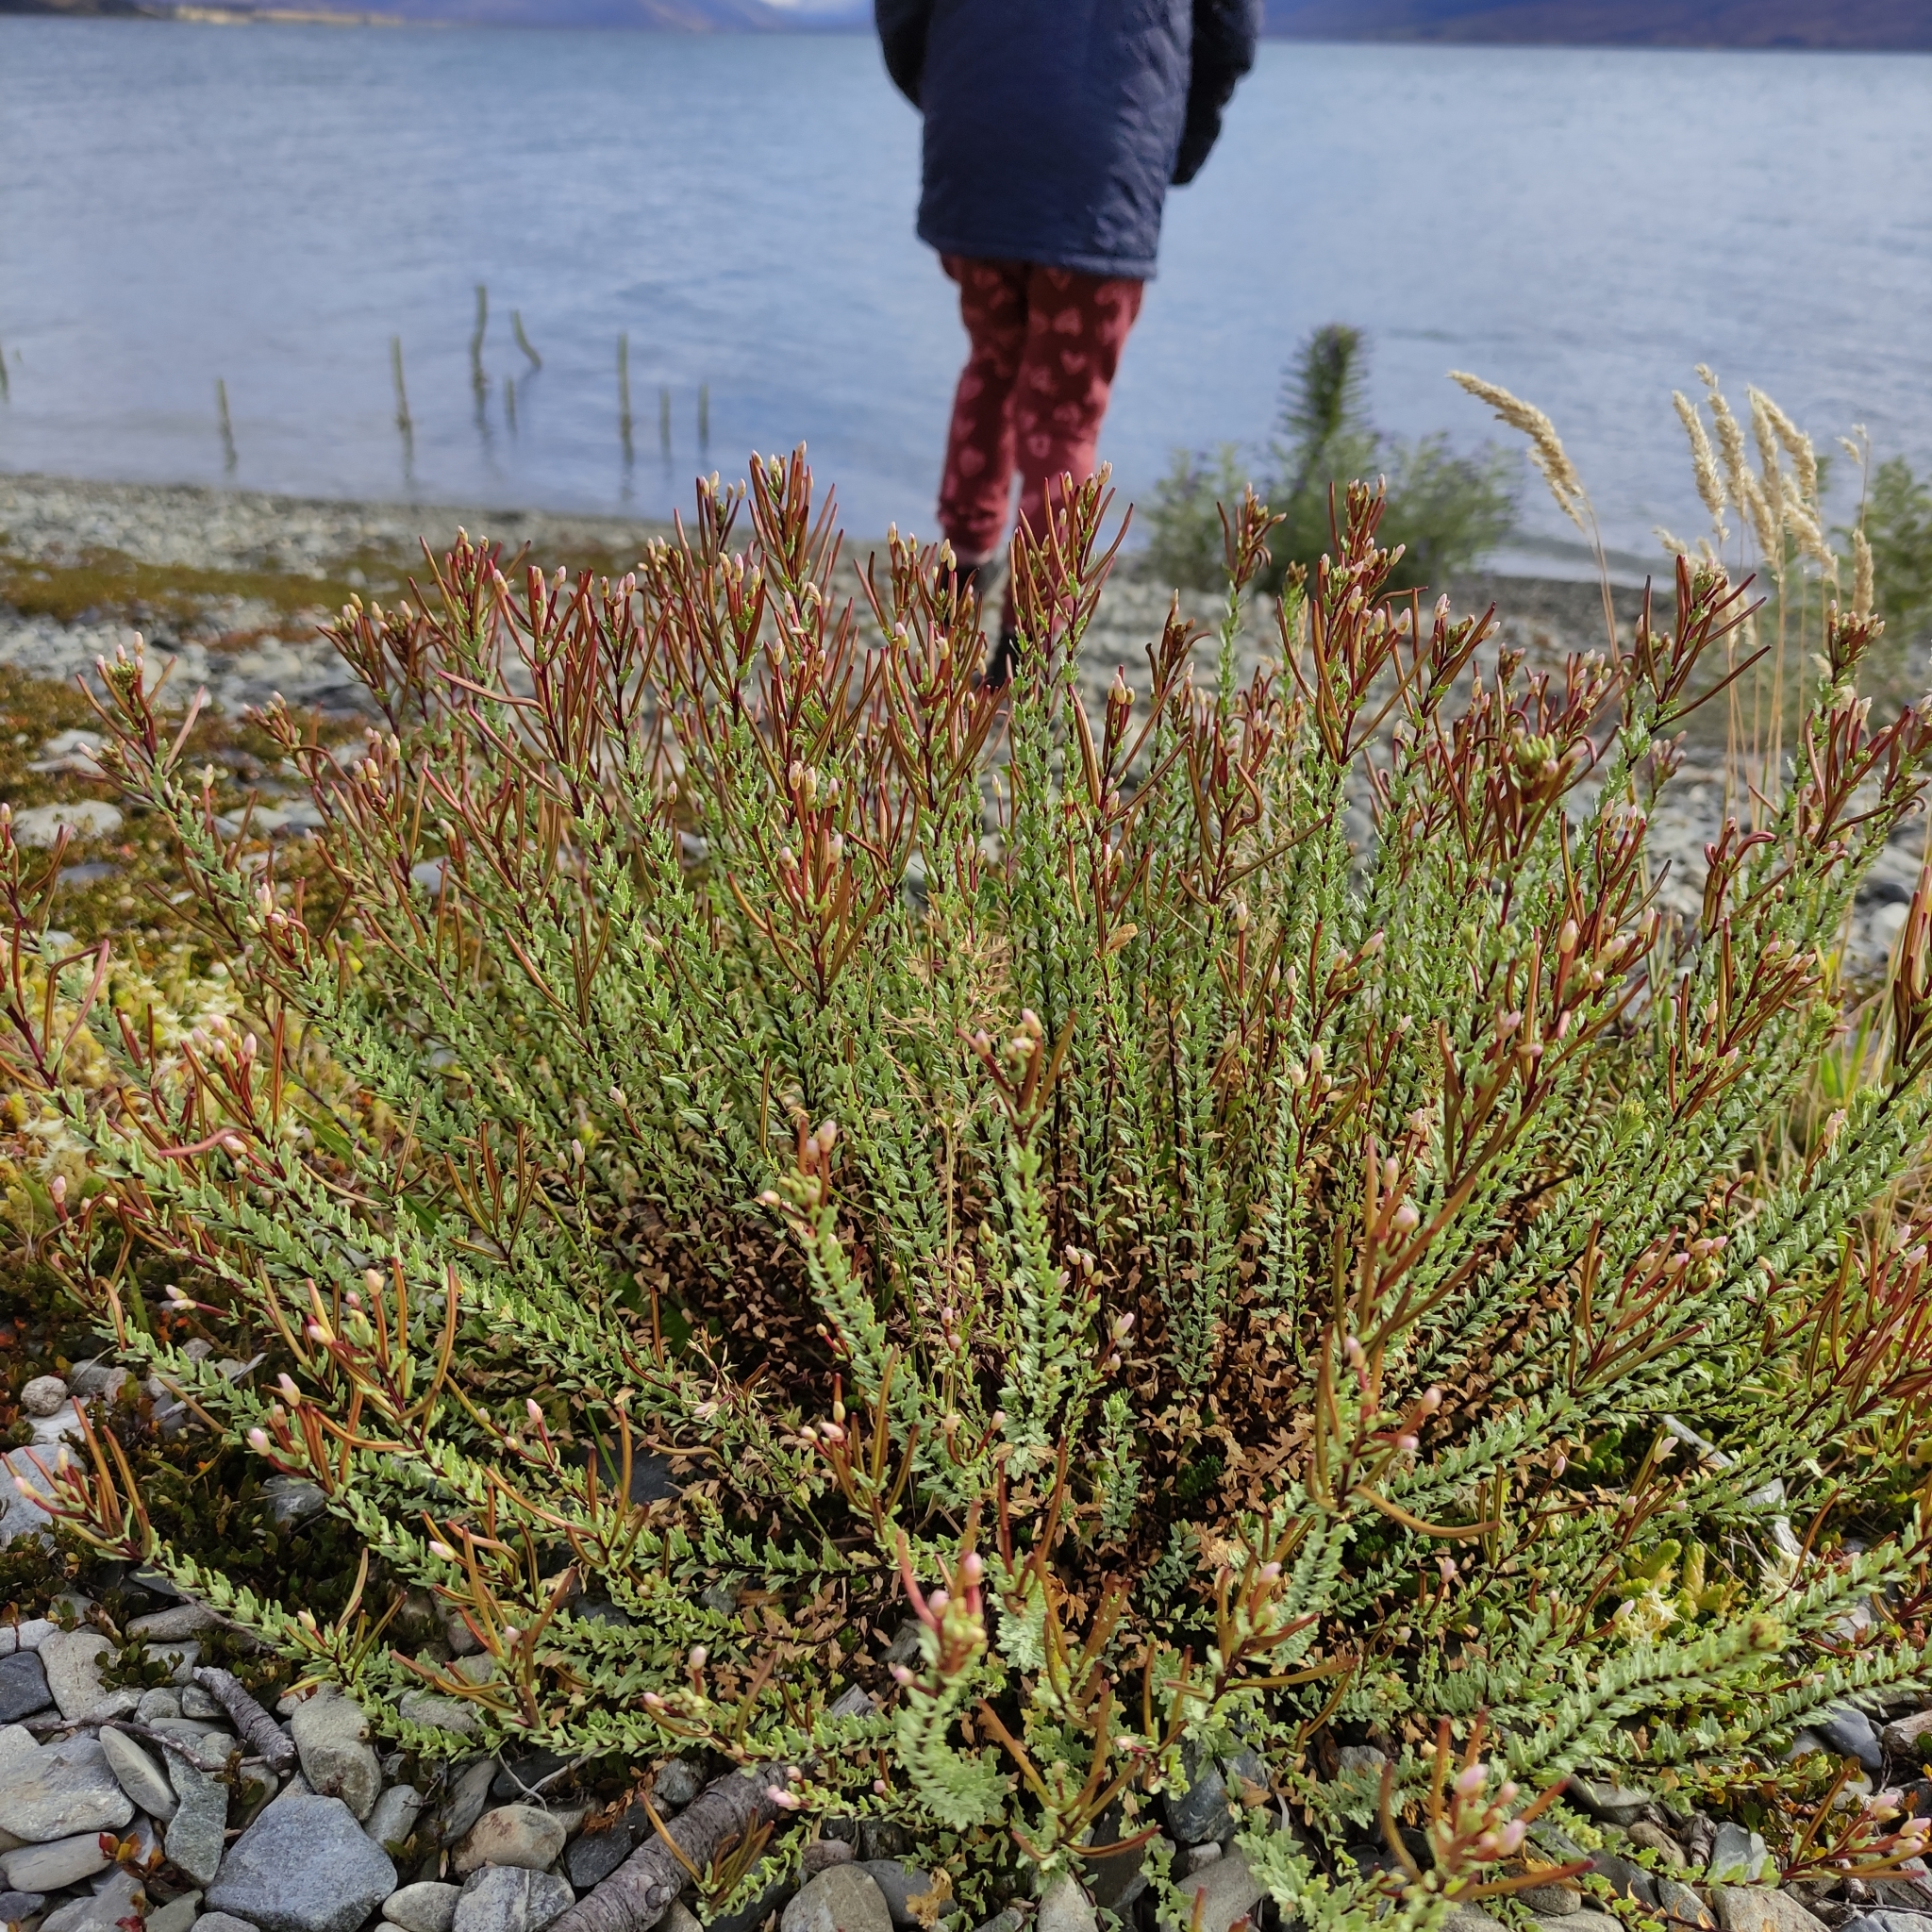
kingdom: Plantae
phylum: Tracheophyta
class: Magnoliopsida
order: Myrtales
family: Onagraceae
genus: Epilobium
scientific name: Epilobium melanocaulon
